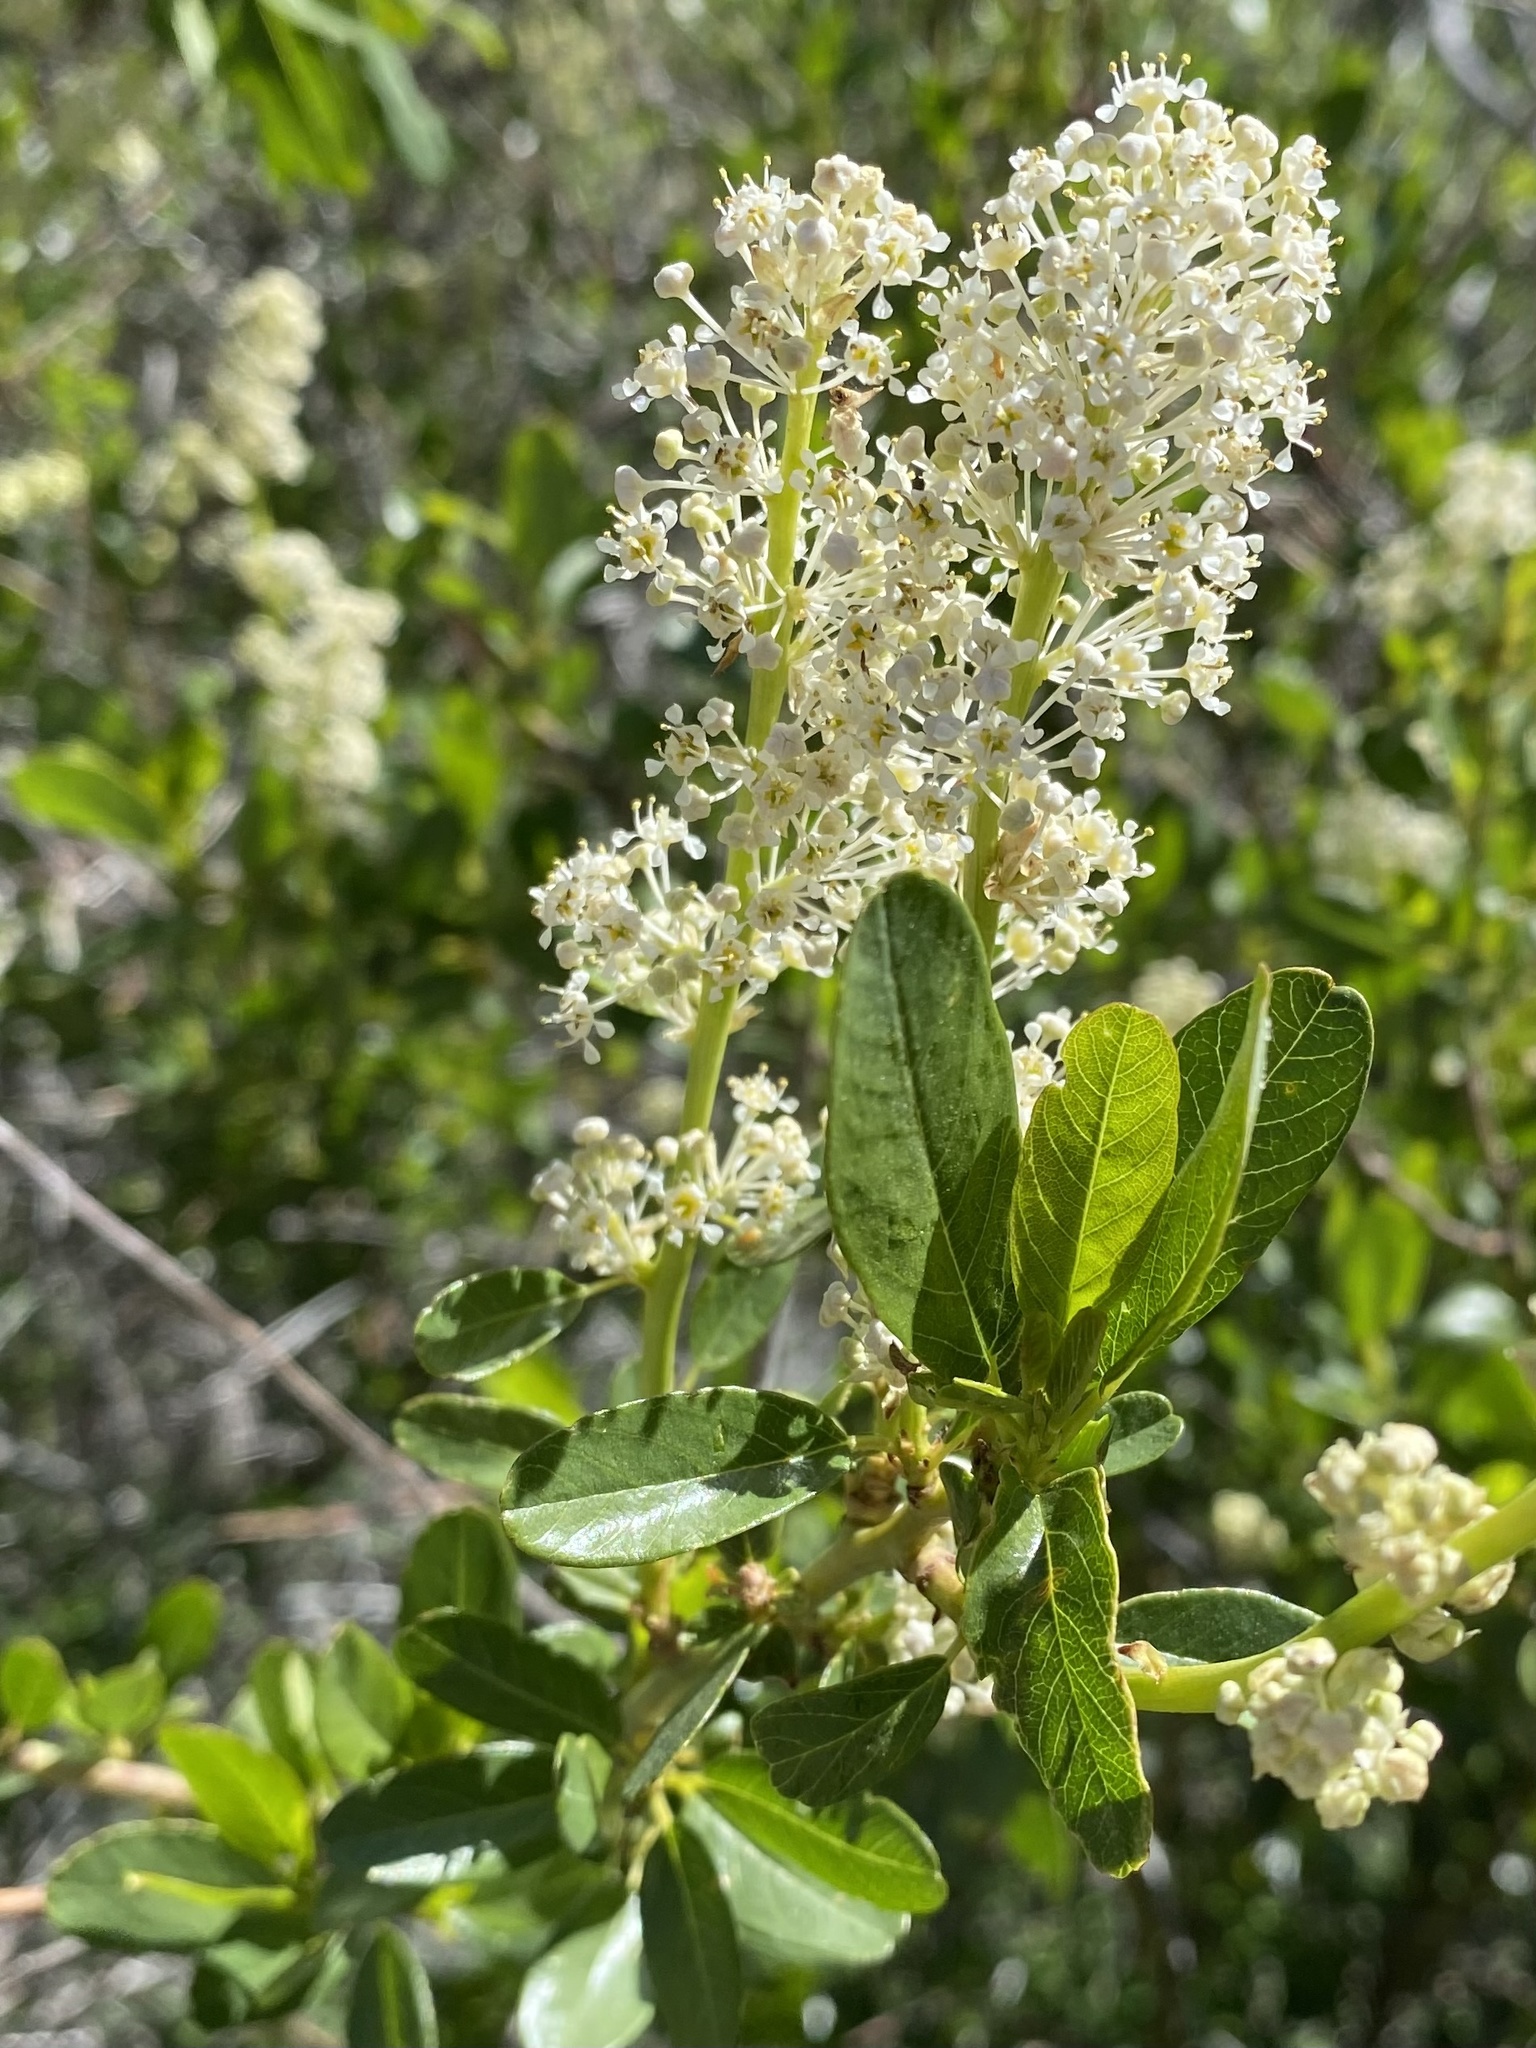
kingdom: Plantae
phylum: Tracheophyta
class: Magnoliopsida
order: Rosales
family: Rhamnaceae
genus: Ceanothus
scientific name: Ceanothus palmeri
